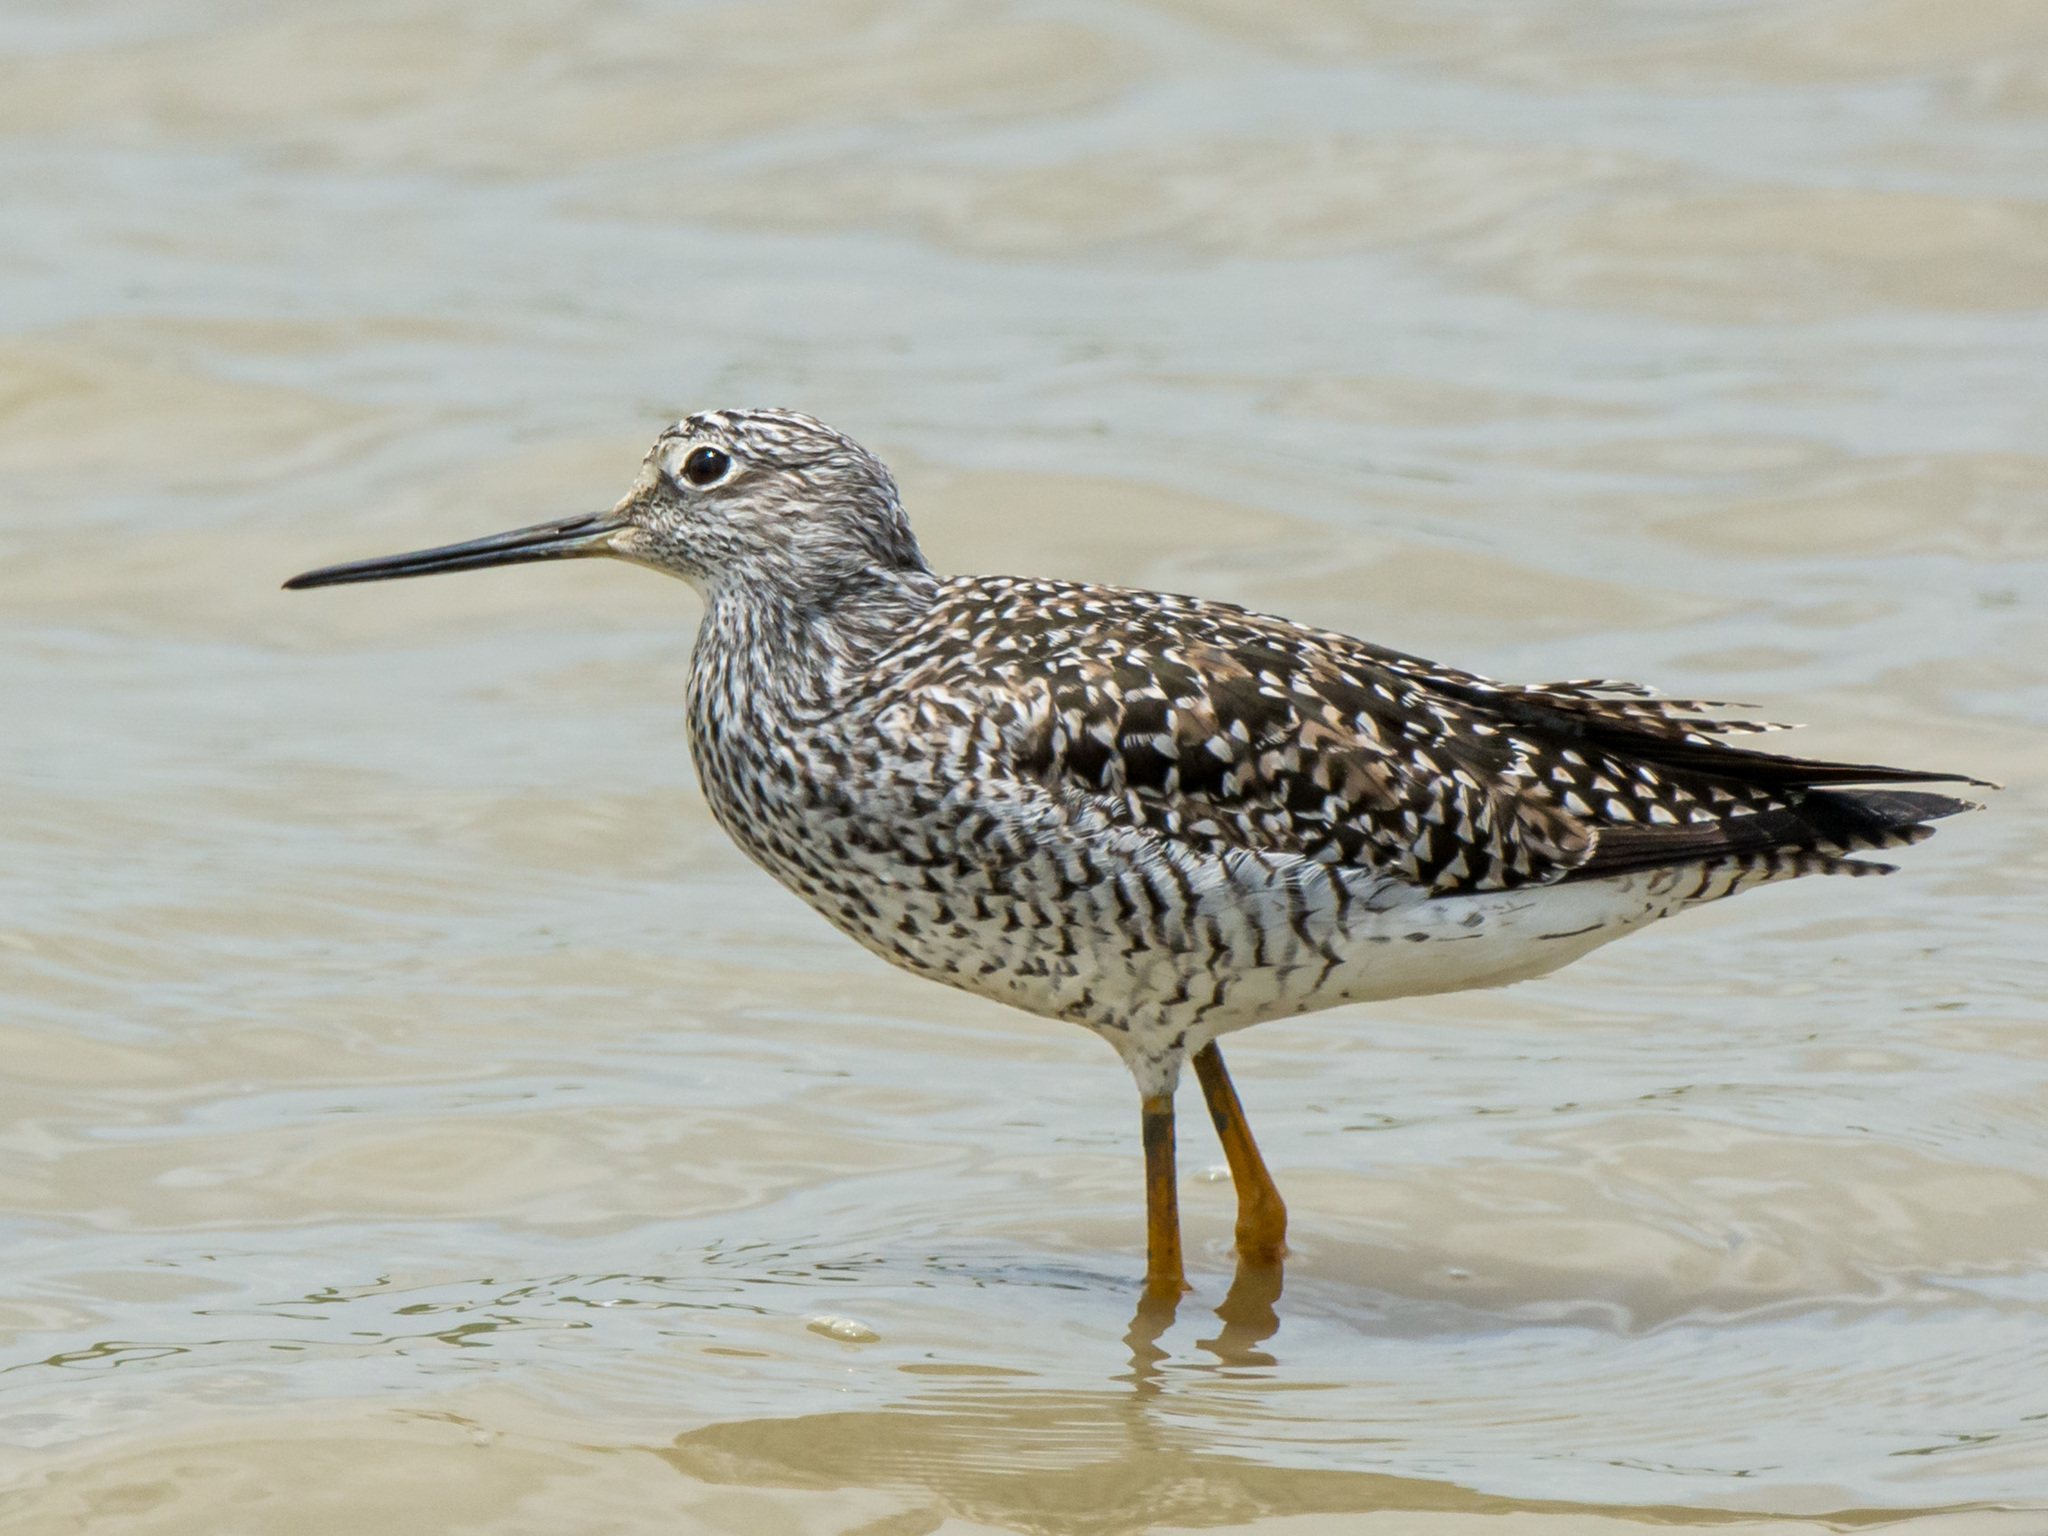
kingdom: Animalia
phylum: Chordata
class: Aves
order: Charadriiformes
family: Scolopacidae
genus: Tringa
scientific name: Tringa melanoleuca
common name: Greater yellowlegs
